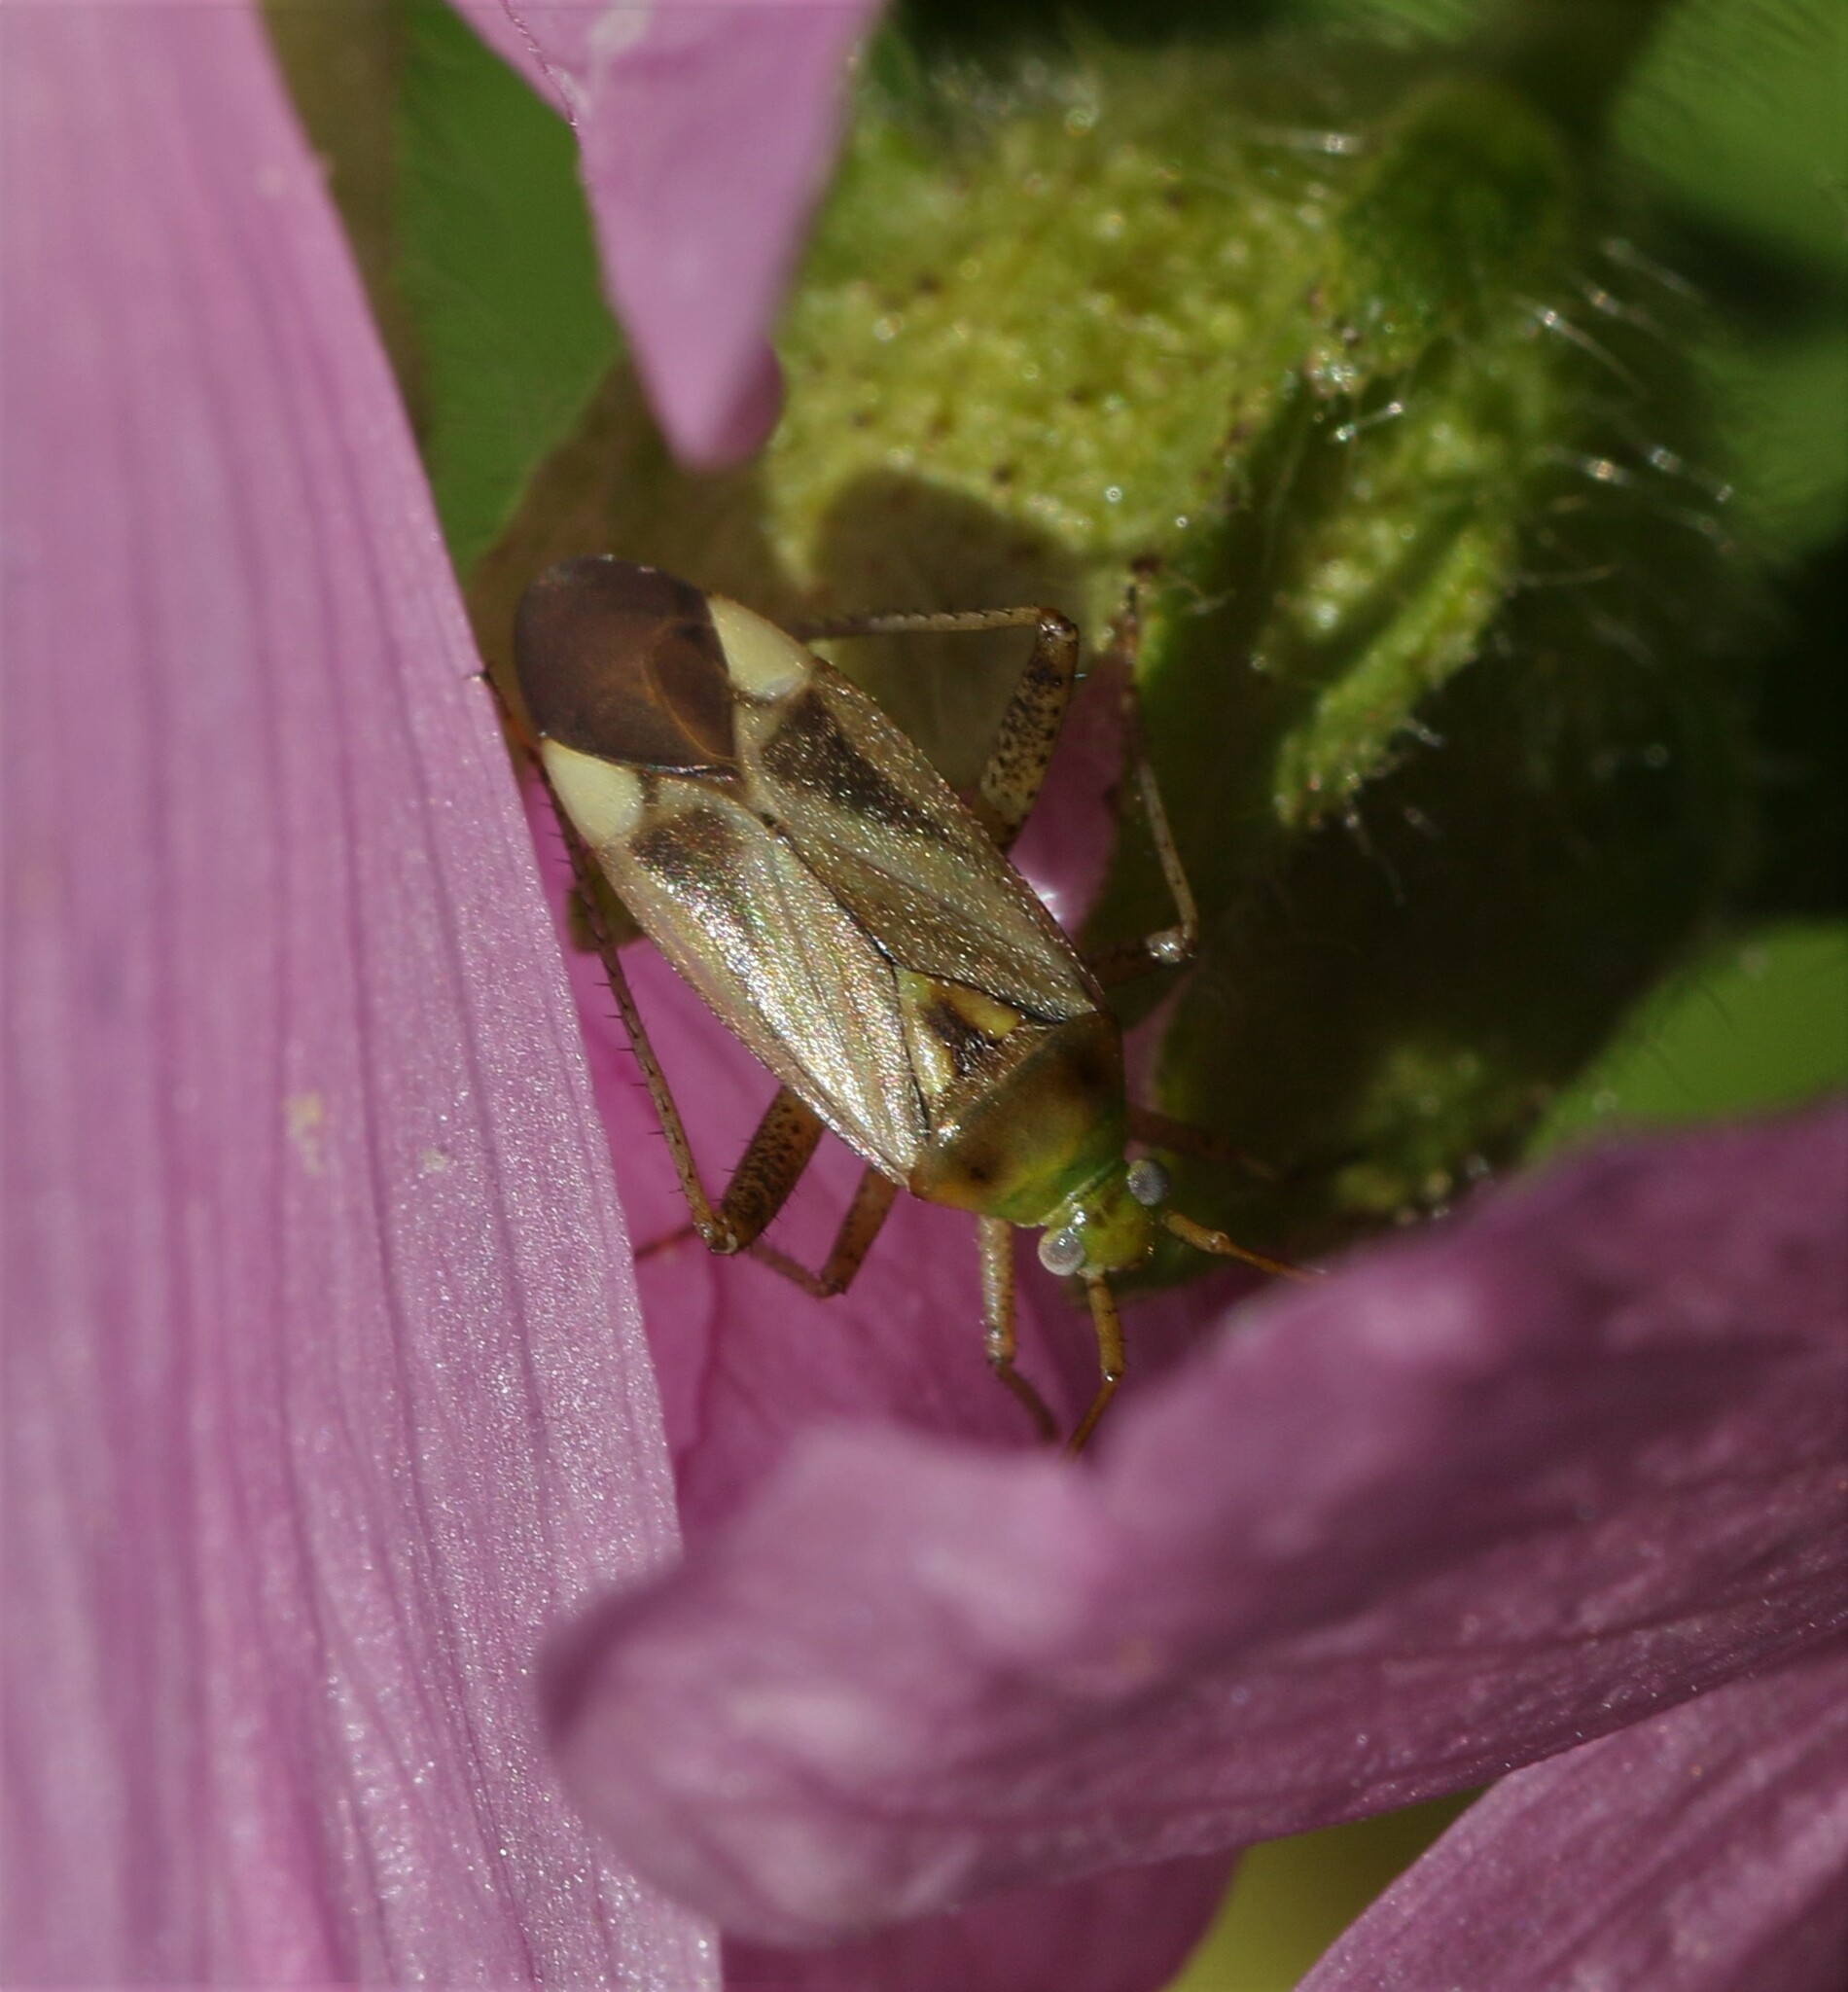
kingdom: Animalia
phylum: Arthropoda
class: Insecta
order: Hemiptera
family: Miridae
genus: Adelphocoris
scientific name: Adelphocoris lineolatus
